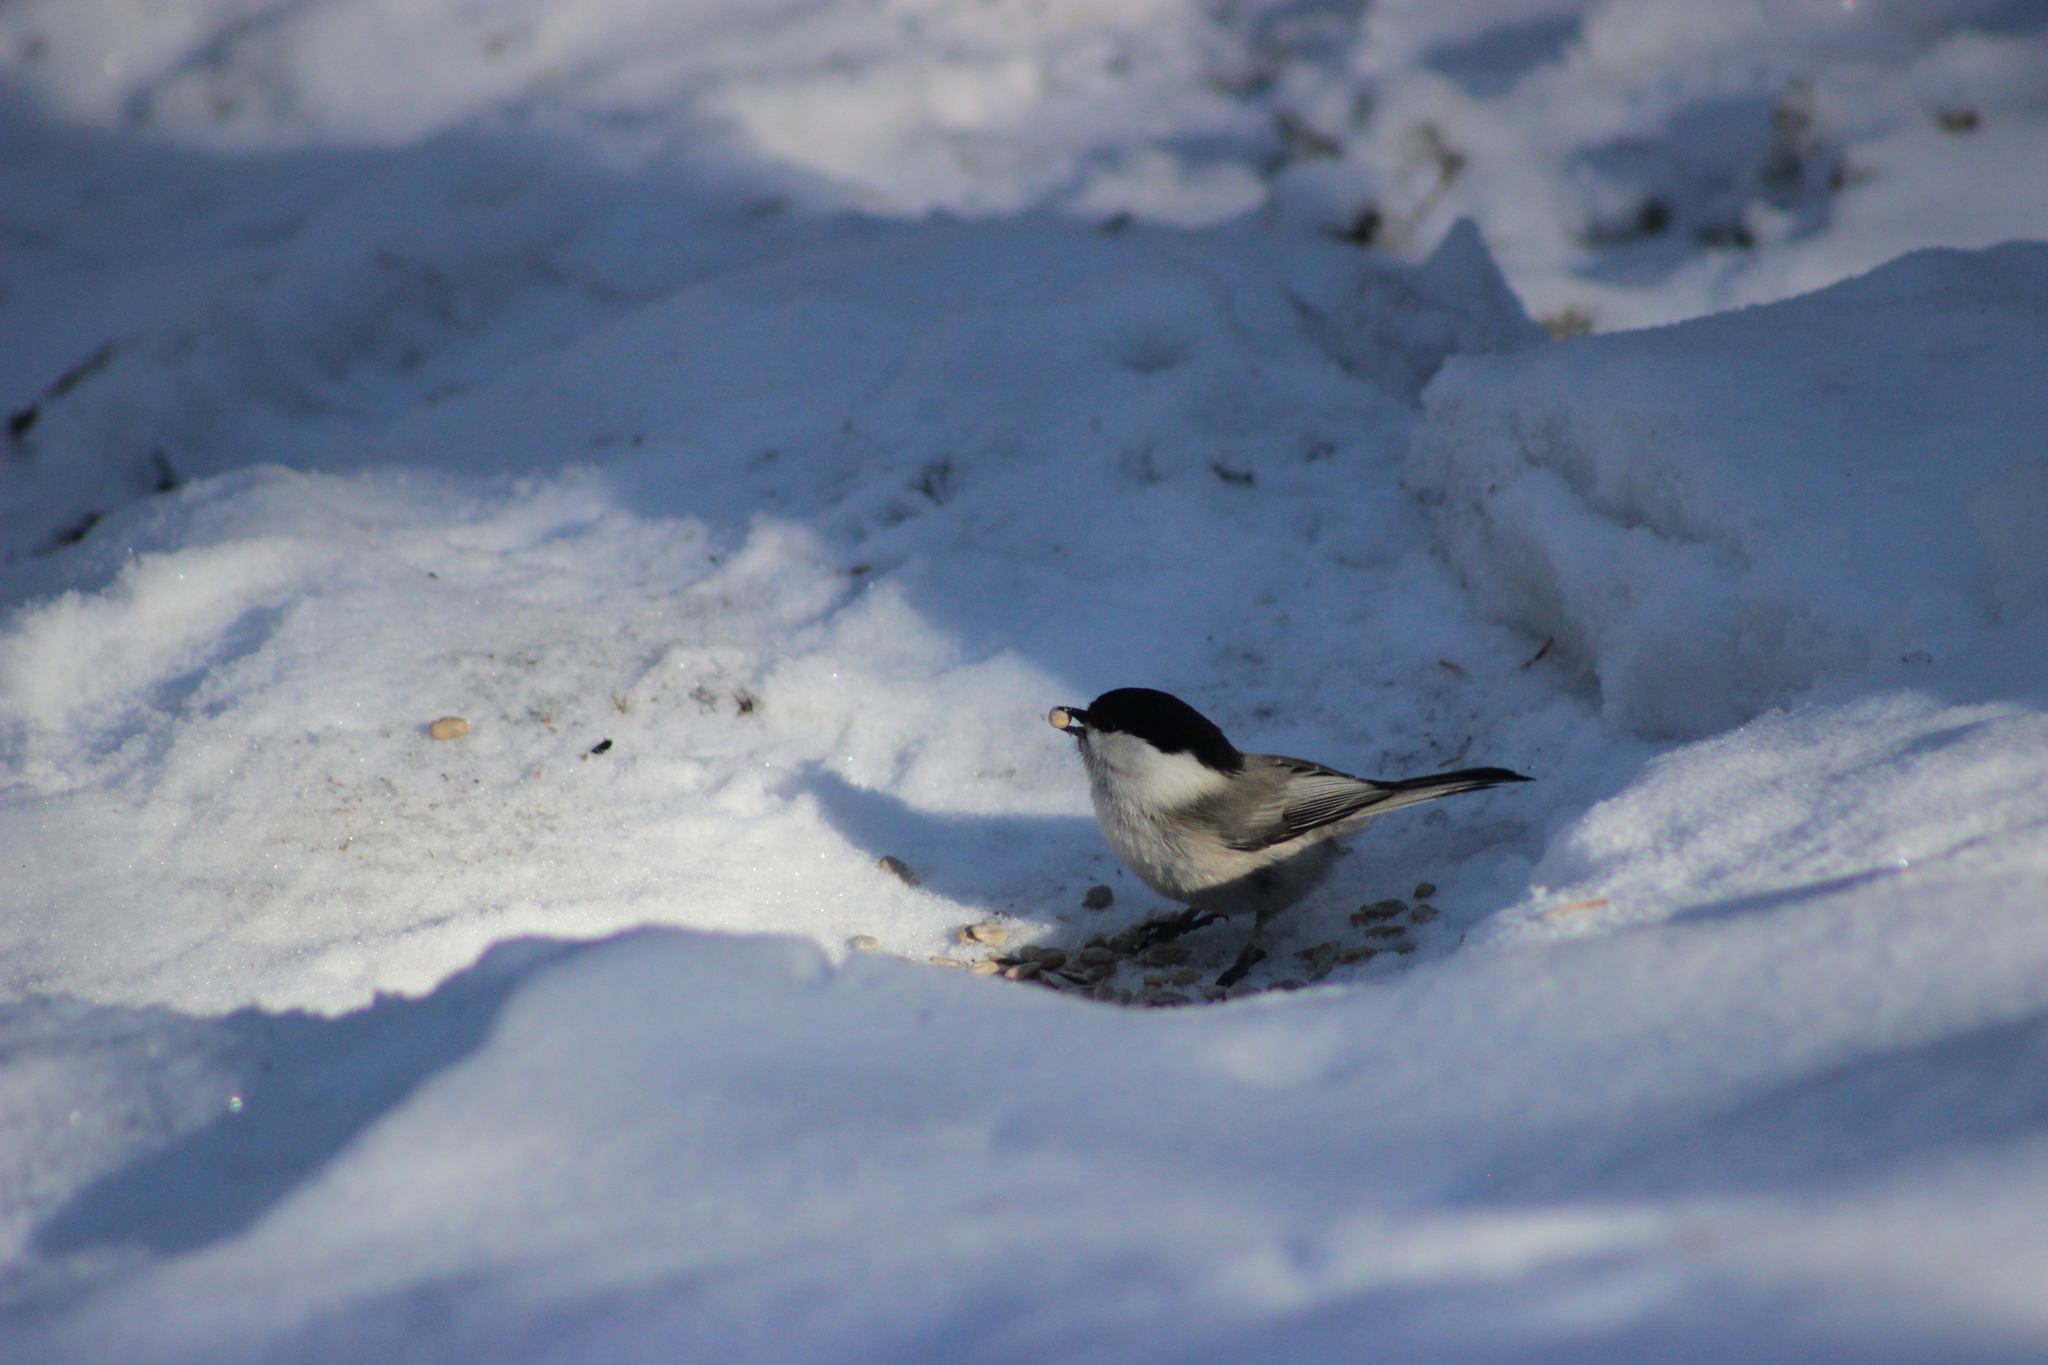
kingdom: Animalia
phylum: Chordata
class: Aves
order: Passeriformes
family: Paridae
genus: Poecile
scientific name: Poecile montanus
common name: Willow tit
